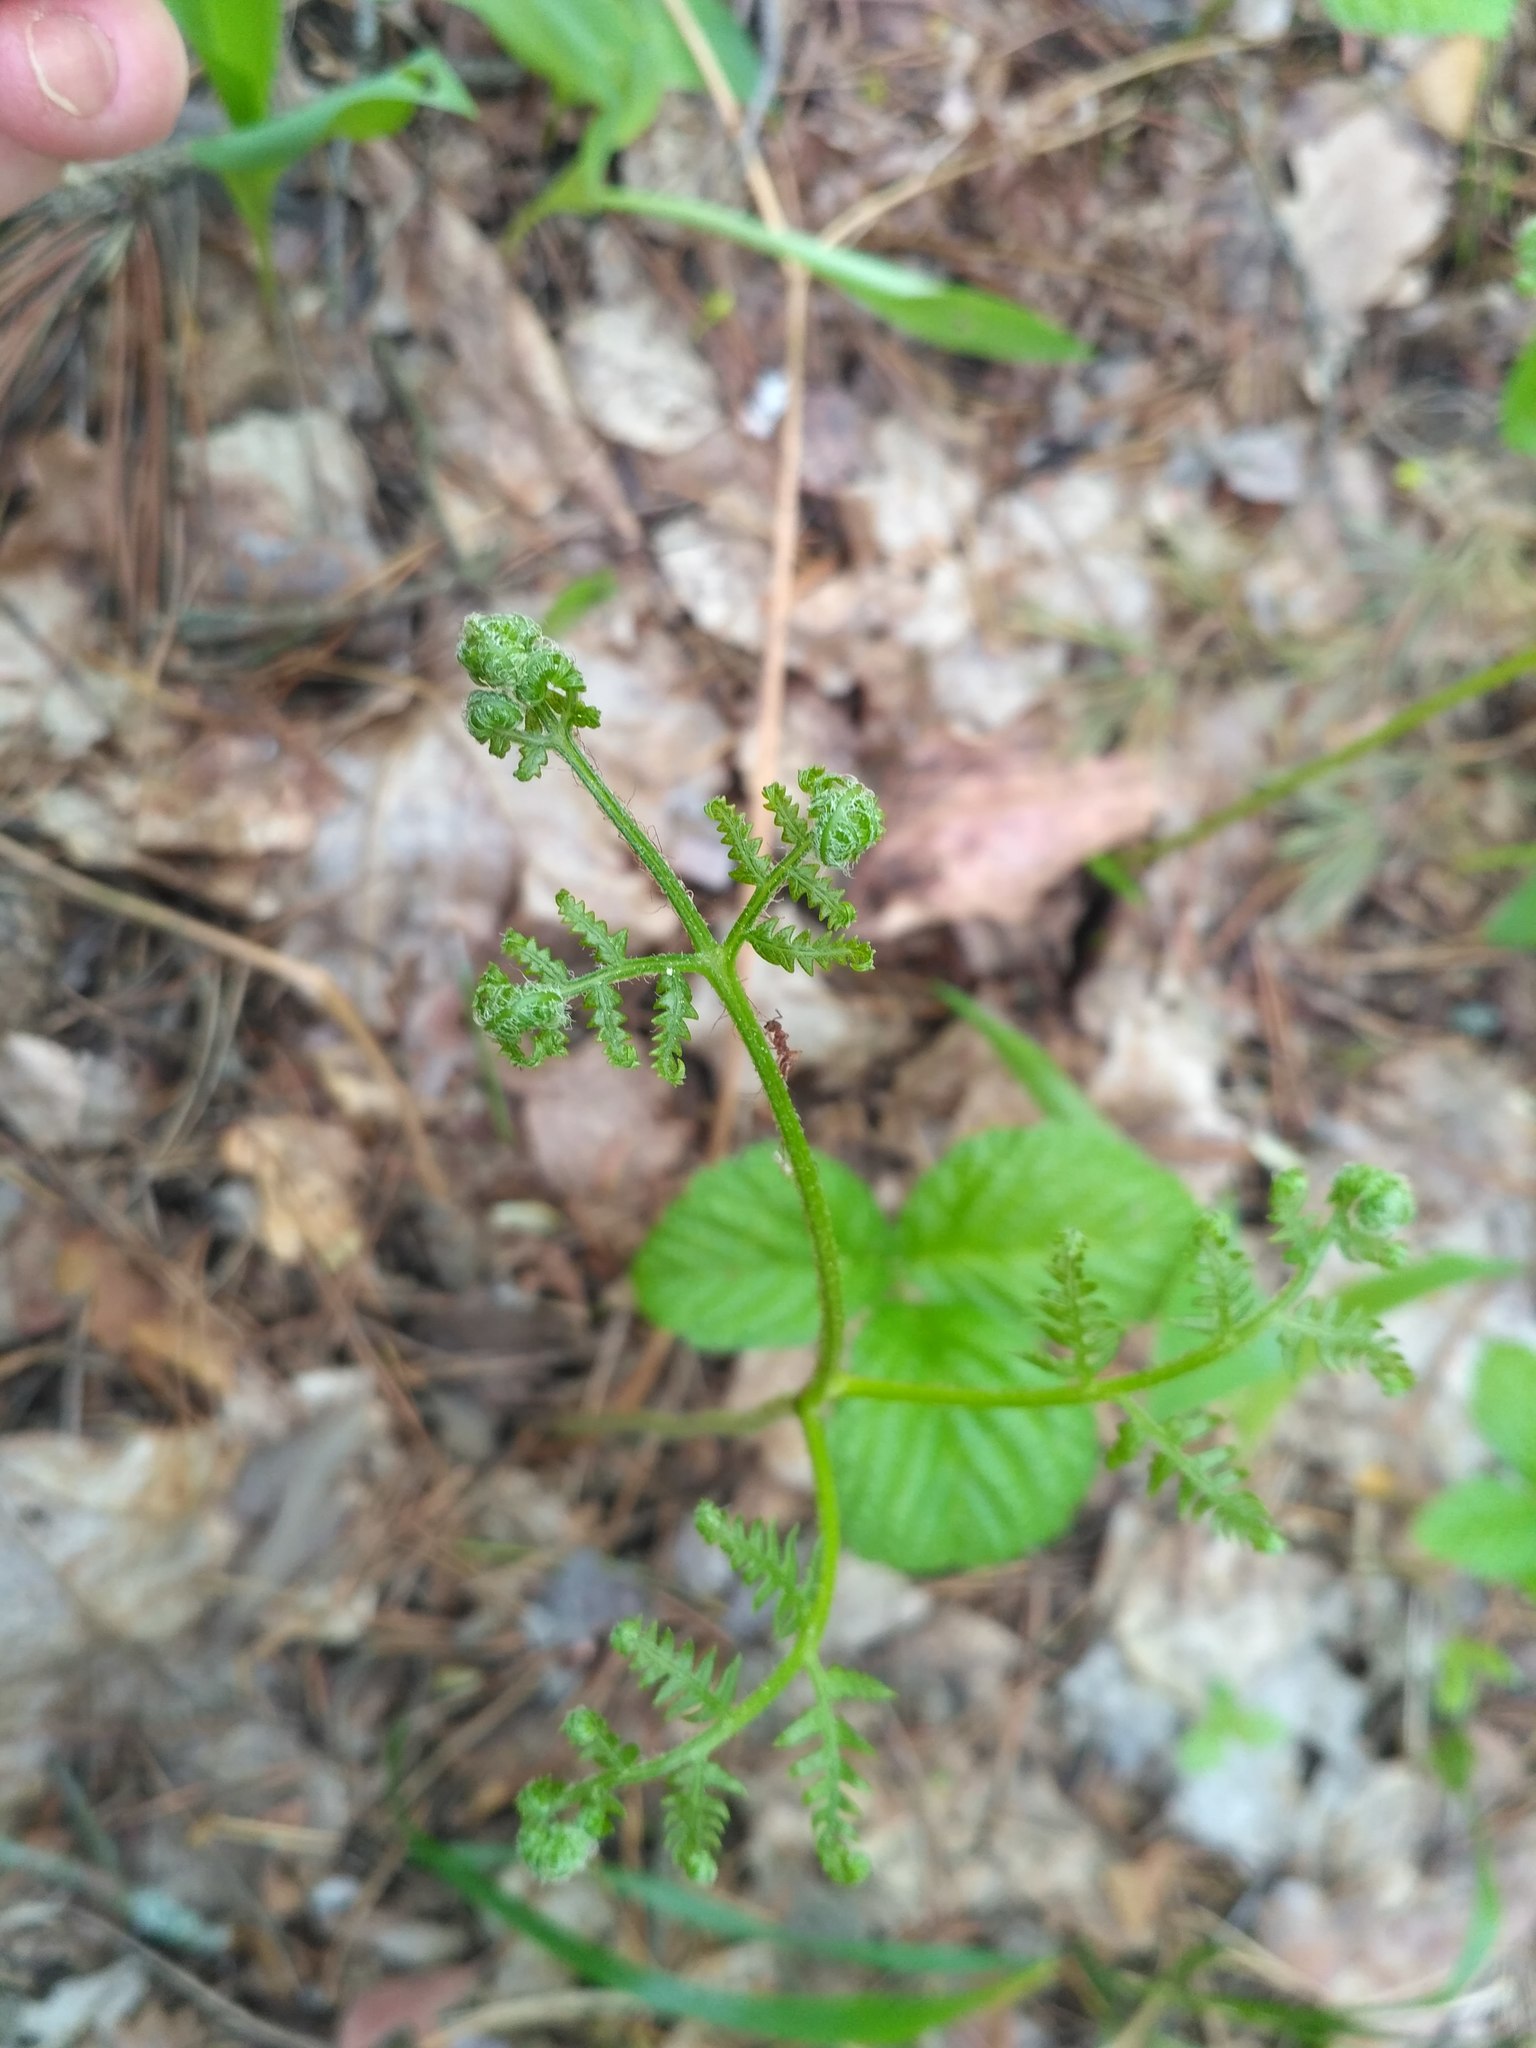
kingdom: Plantae
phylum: Tracheophyta
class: Polypodiopsida
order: Polypodiales
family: Dennstaedtiaceae
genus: Pteridium
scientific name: Pteridium aquilinum
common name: Bracken
